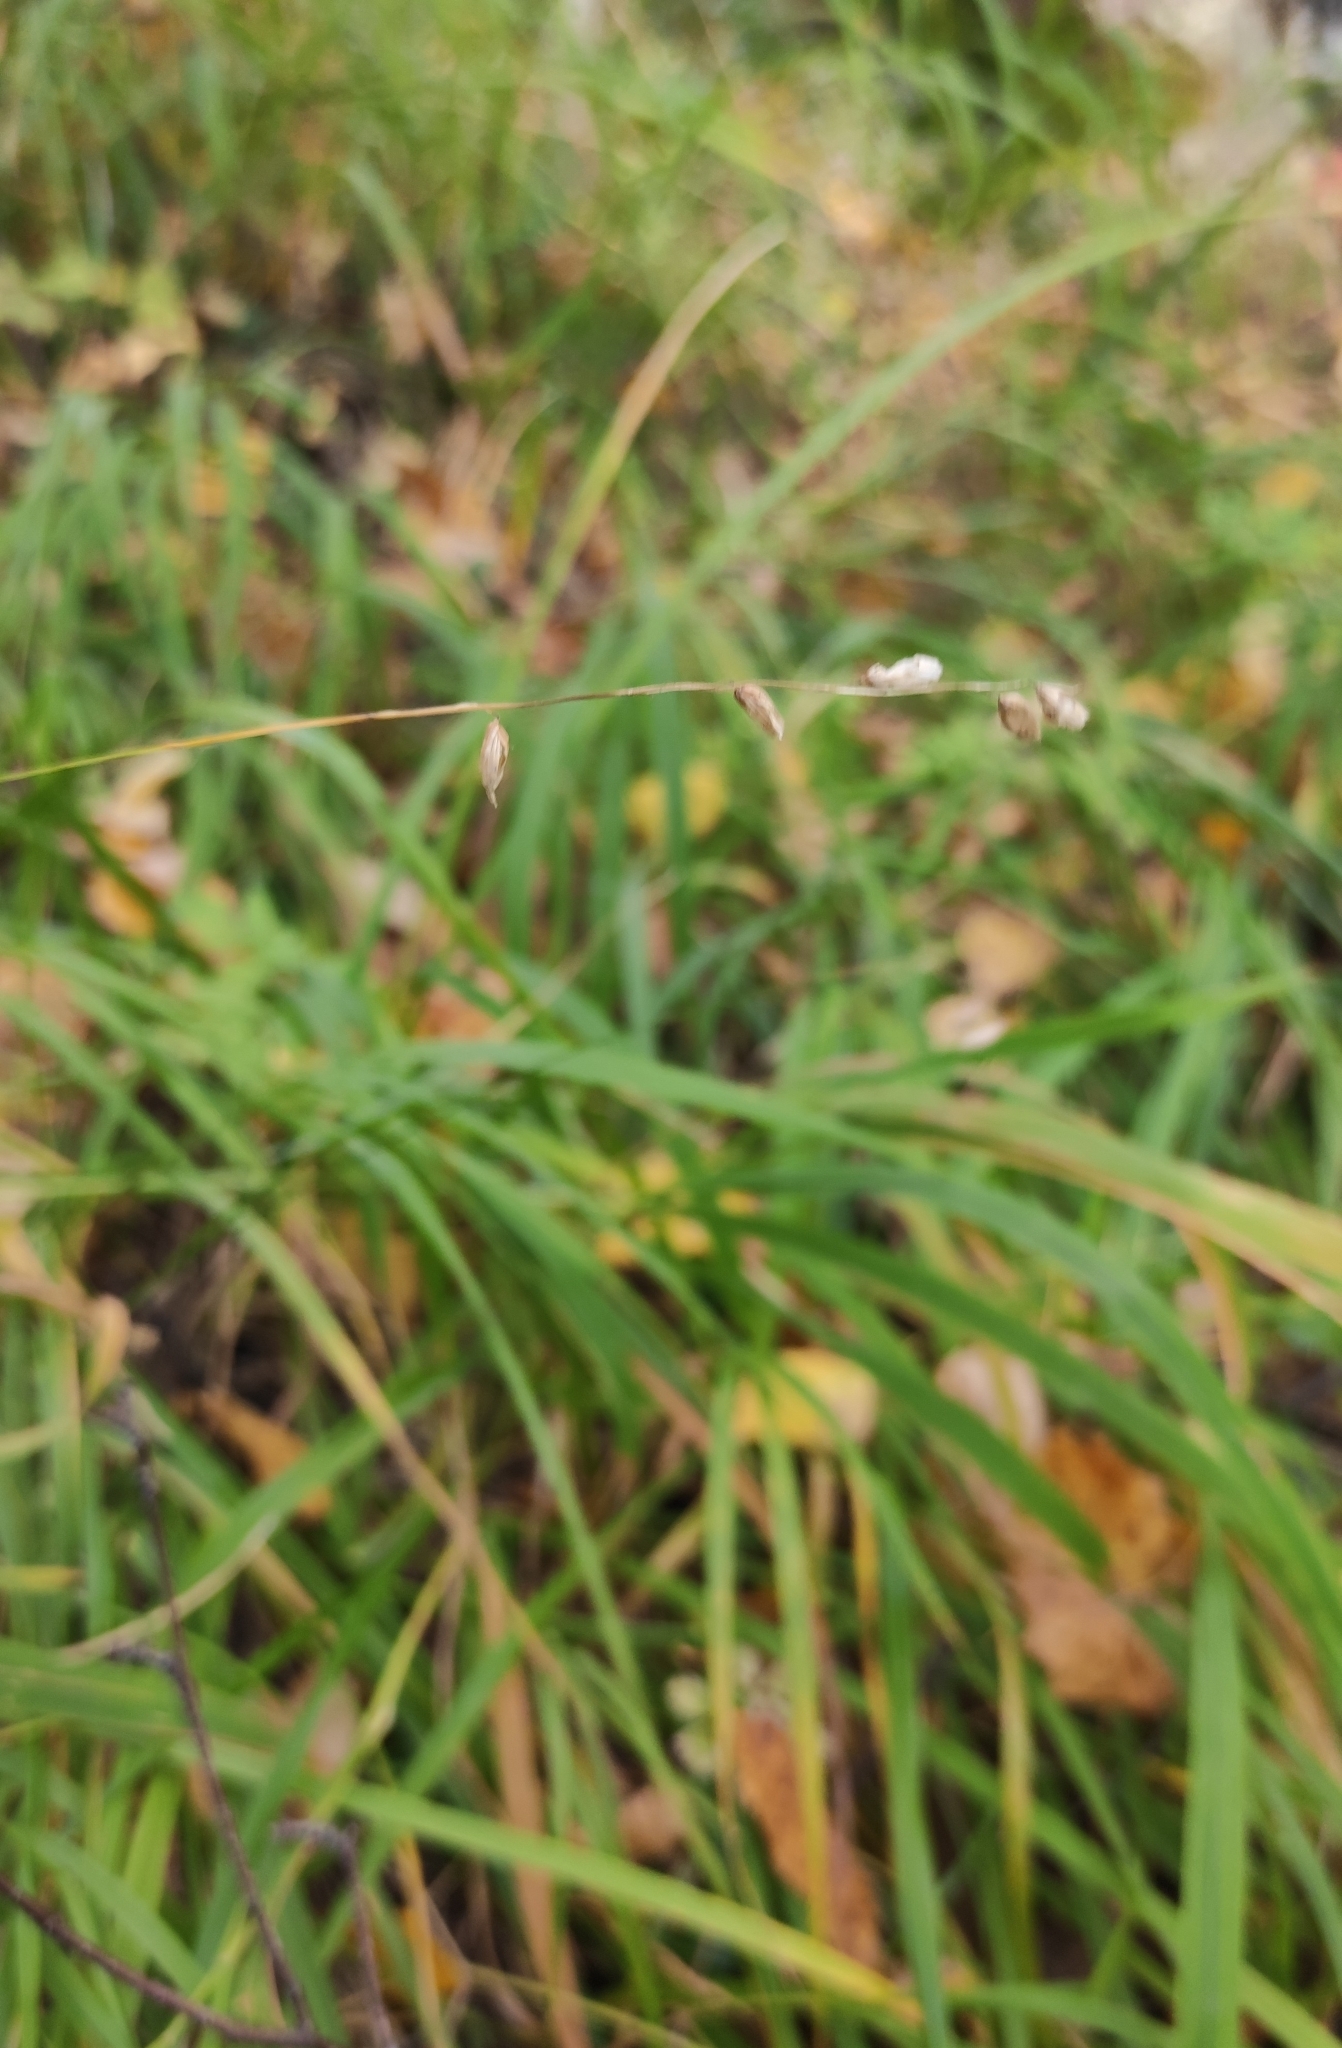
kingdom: Plantae
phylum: Tracheophyta
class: Liliopsida
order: Poales
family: Poaceae
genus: Melica
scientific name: Melica nutans
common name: Mountain melick
